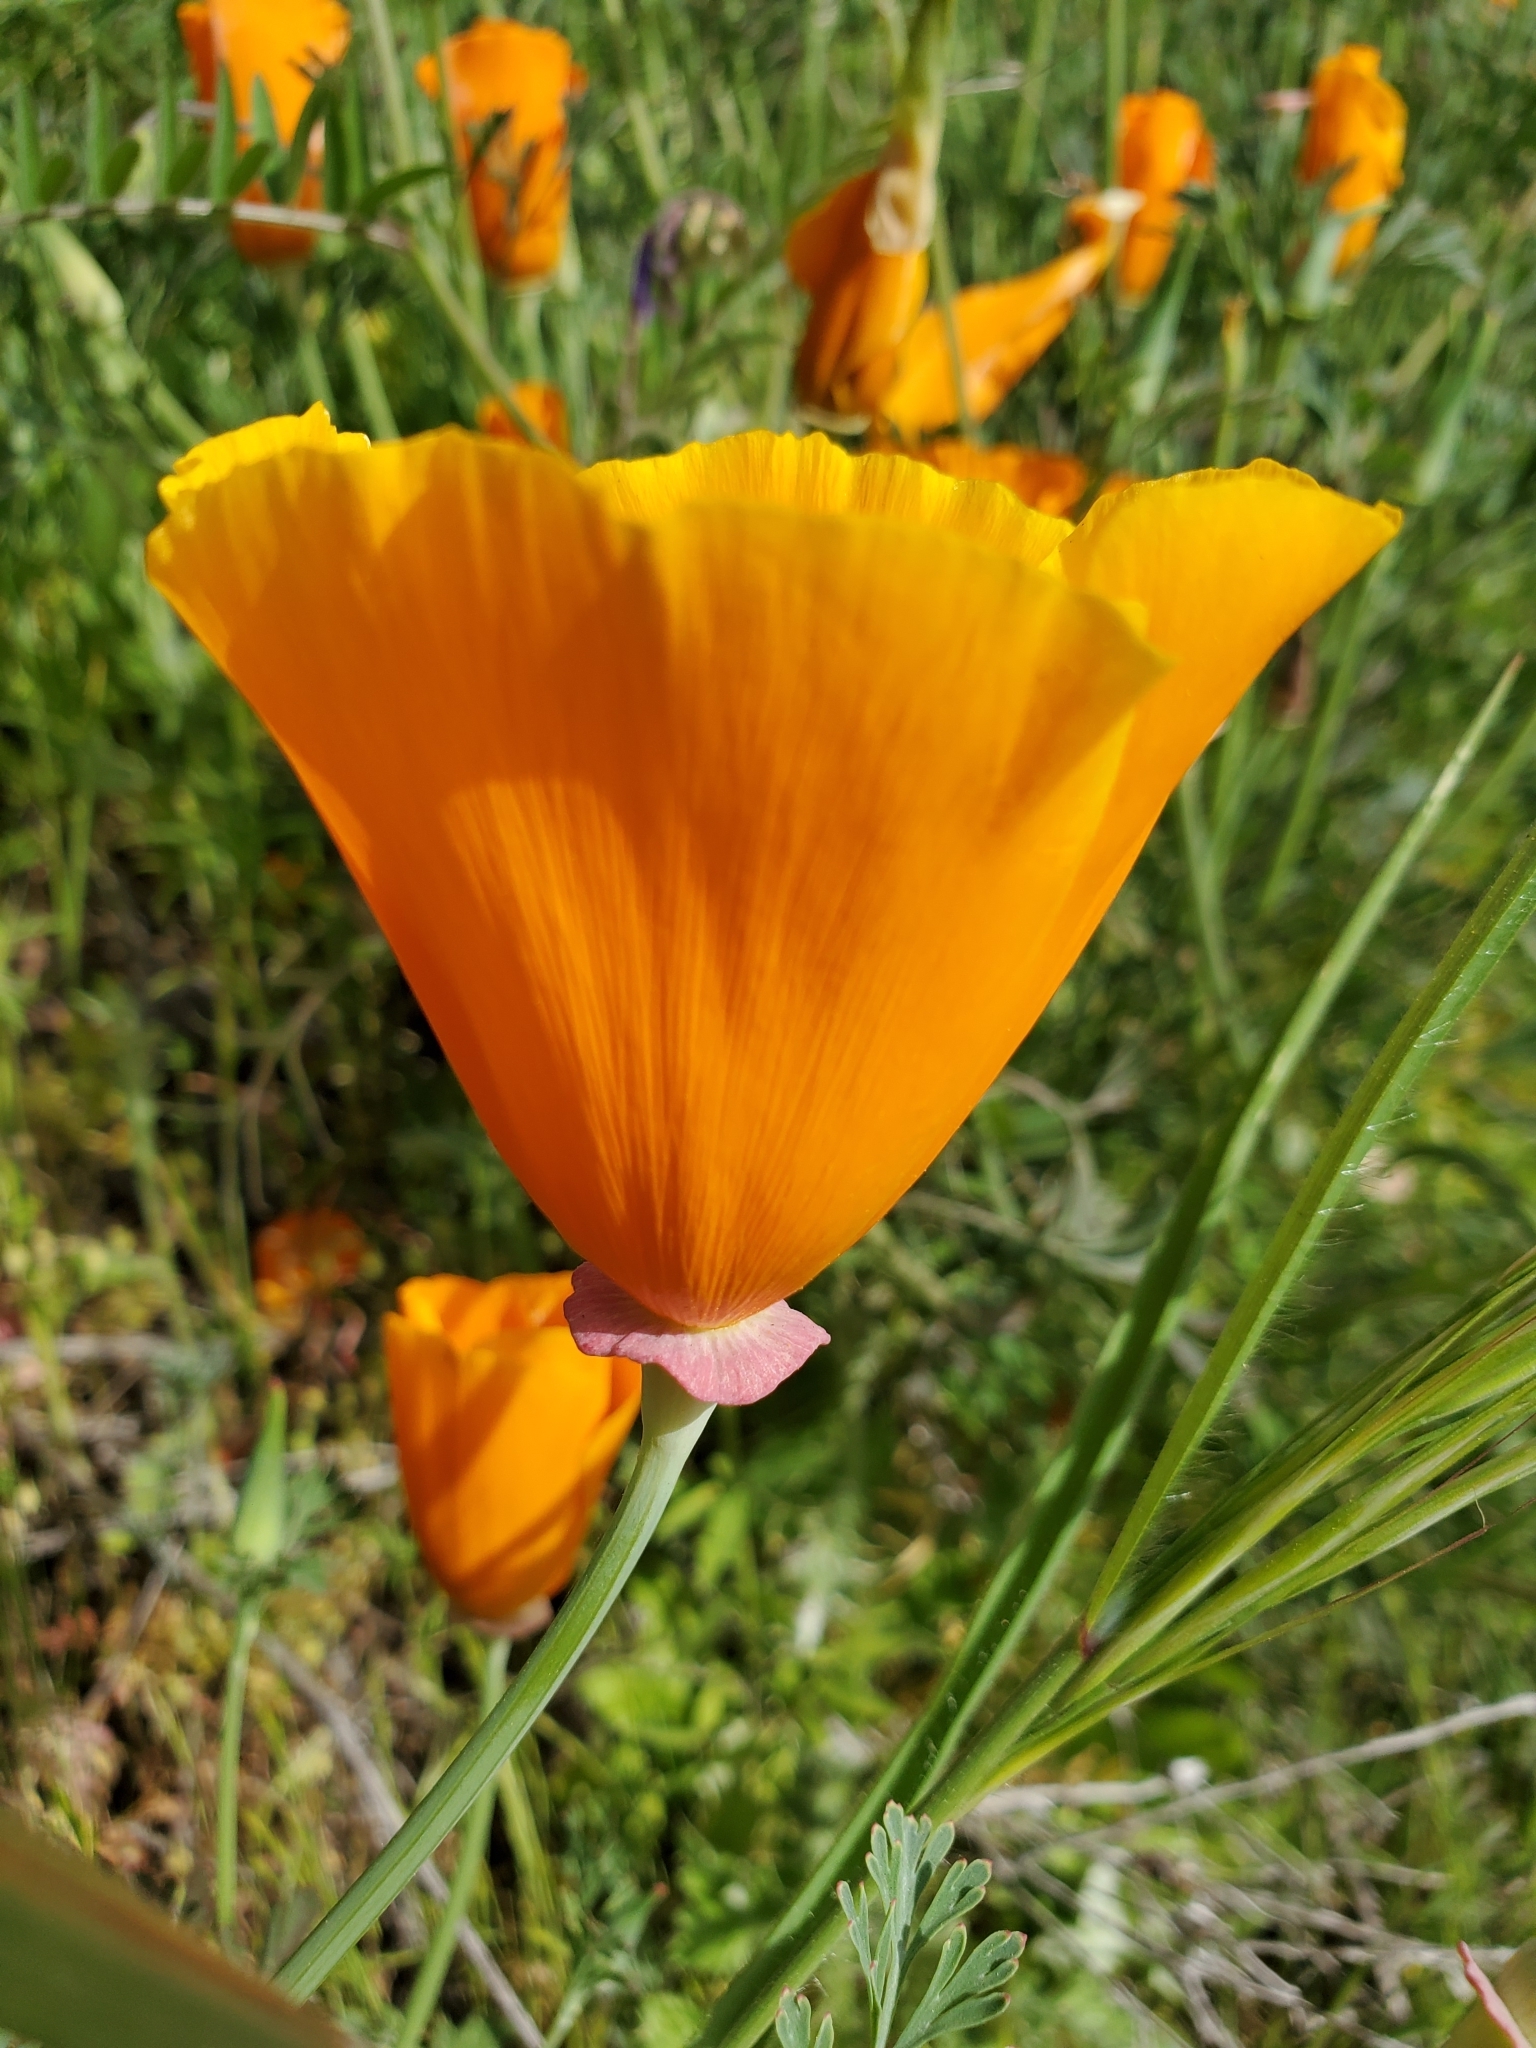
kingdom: Plantae
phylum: Tracheophyta
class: Magnoliopsida
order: Ranunculales
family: Papaveraceae
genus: Eschscholzia
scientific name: Eschscholzia californica
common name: California poppy
